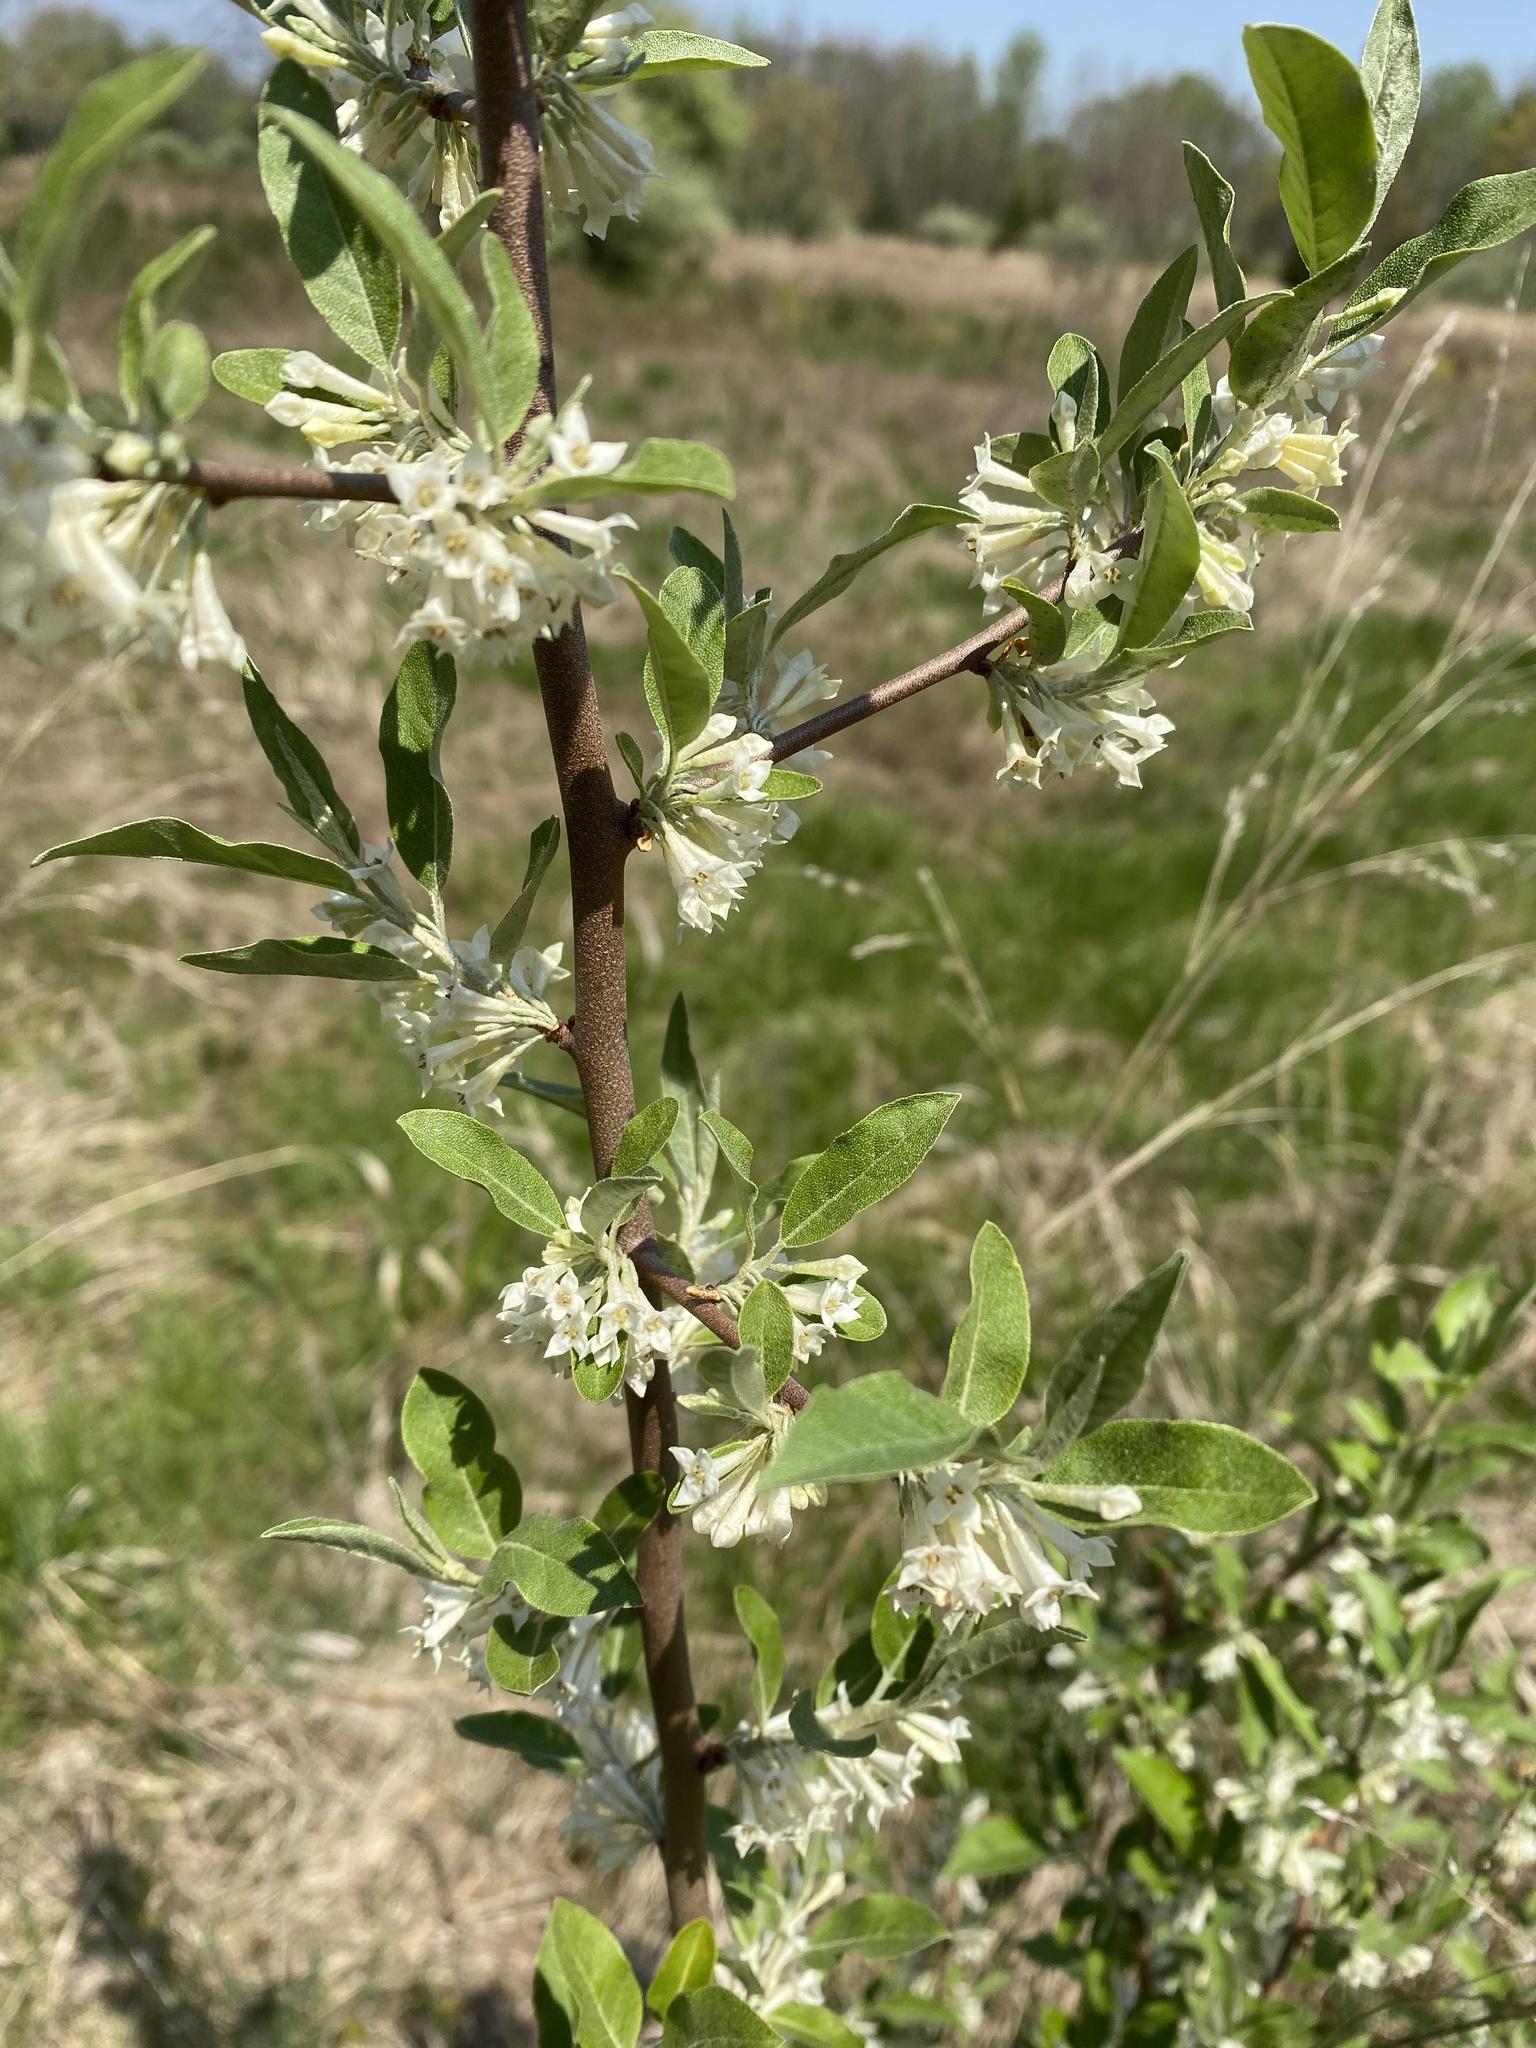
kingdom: Plantae
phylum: Tracheophyta
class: Magnoliopsida
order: Rosales
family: Elaeagnaceae
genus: Elaeagnus
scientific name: Elaeagnus umbellata
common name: Autumn olive
